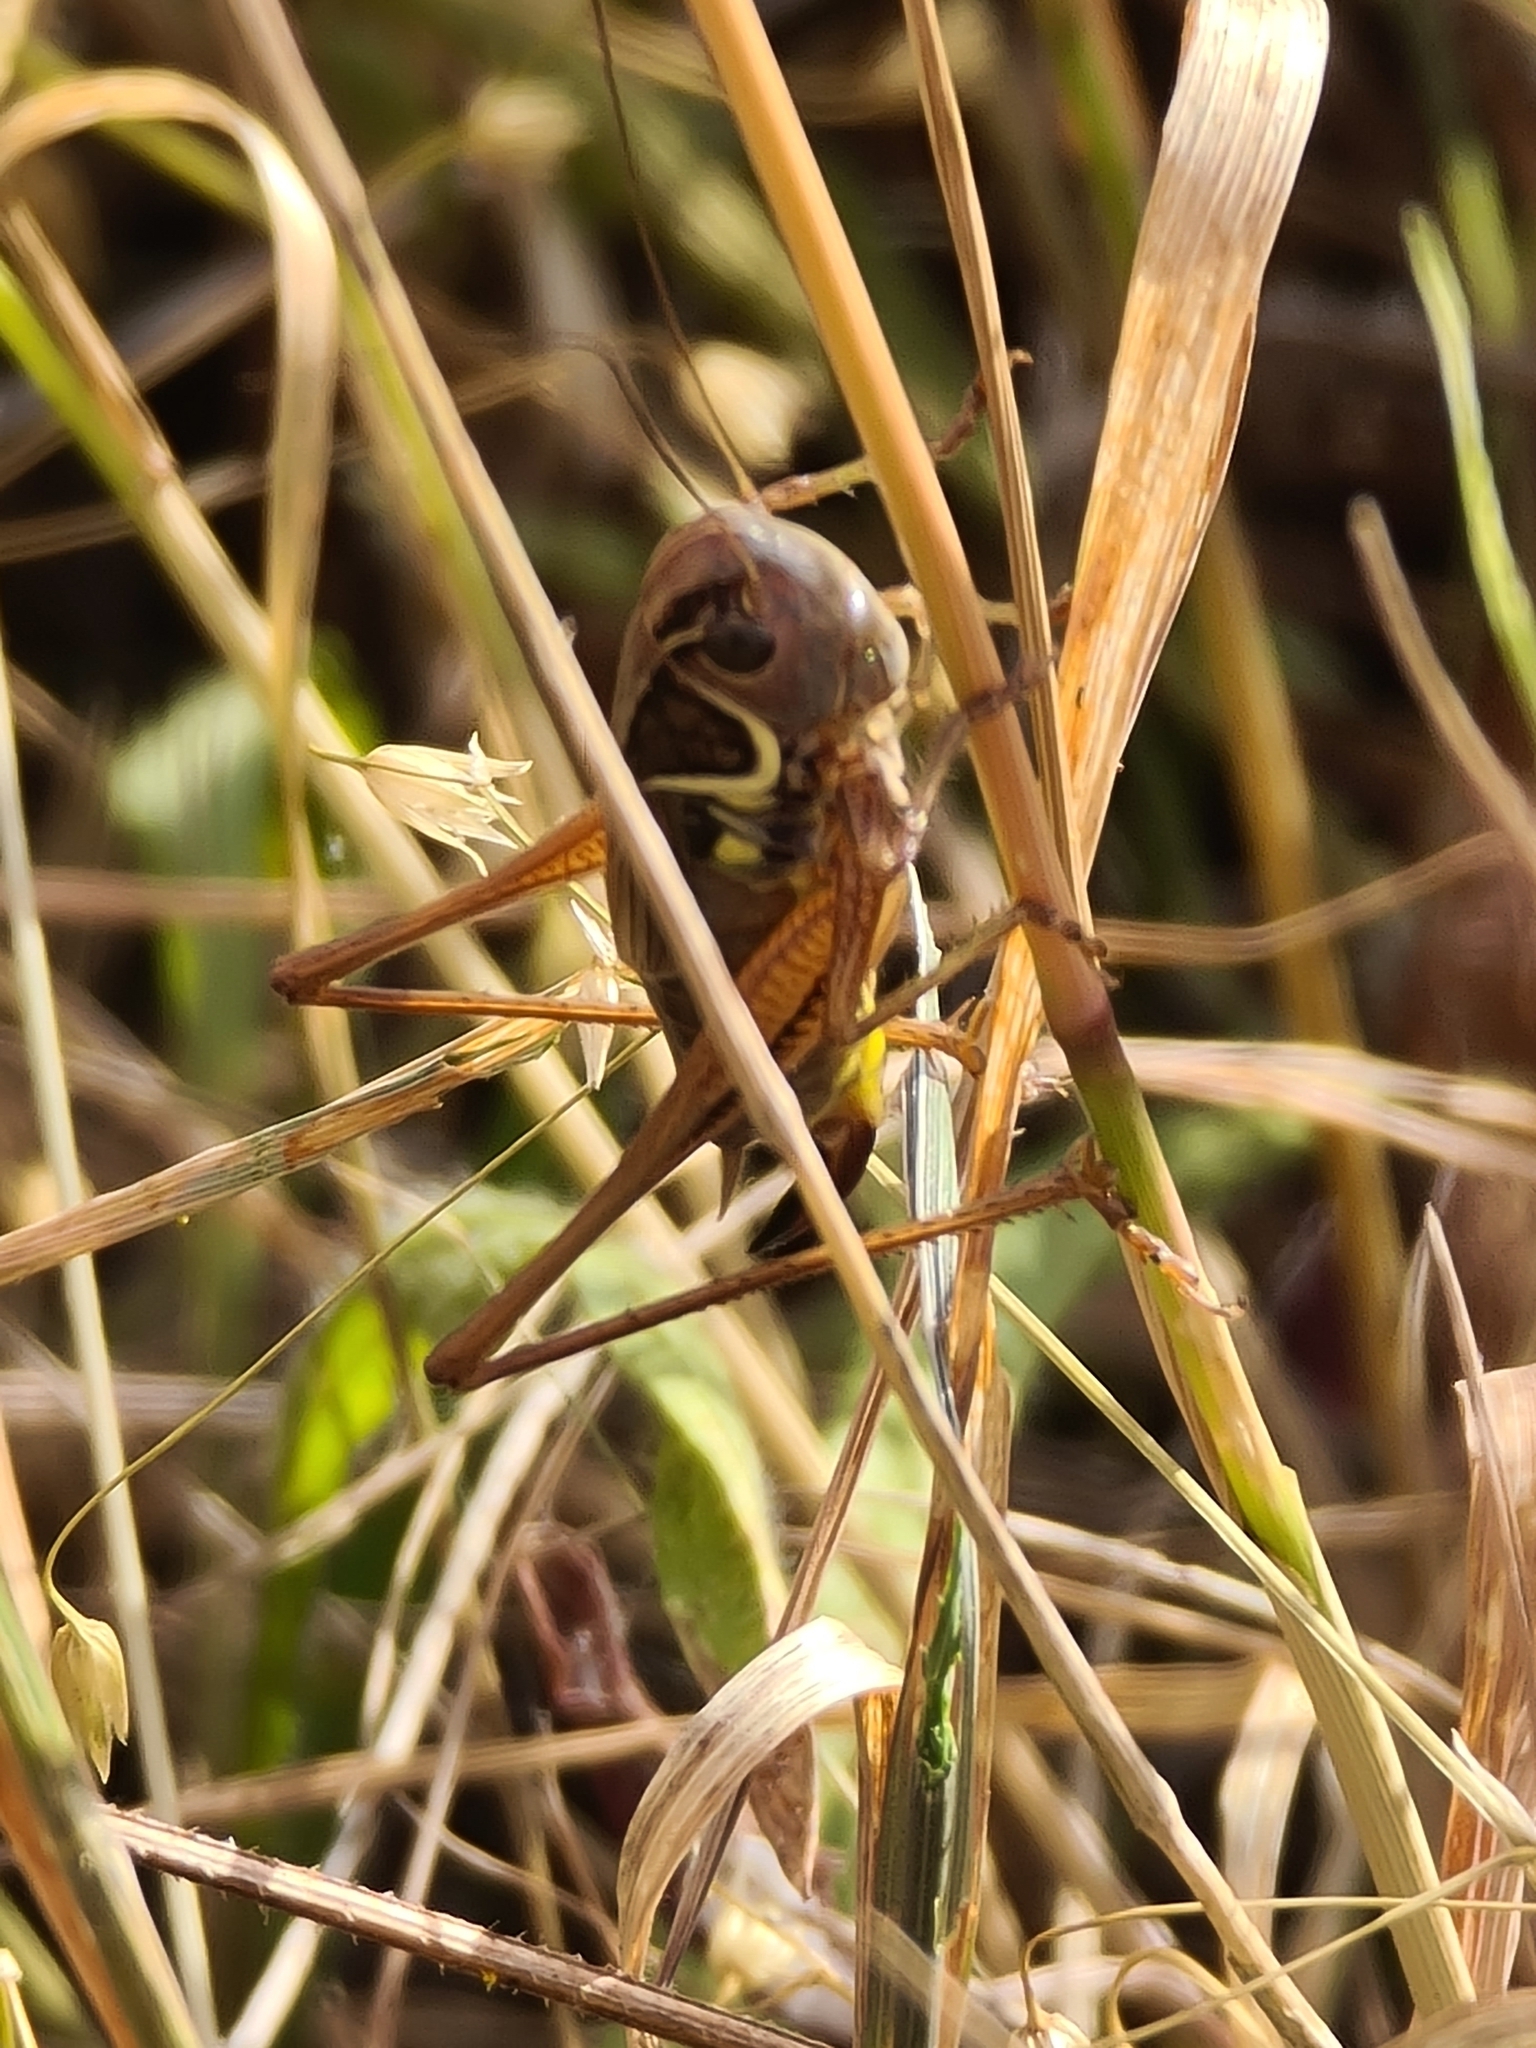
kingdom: Animalia
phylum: Arthropoda
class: Insecta
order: Orthoptera
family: Tettigoniidae
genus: Roeseliana
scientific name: Roeseliana roeselii
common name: Roesel's bush cricket
